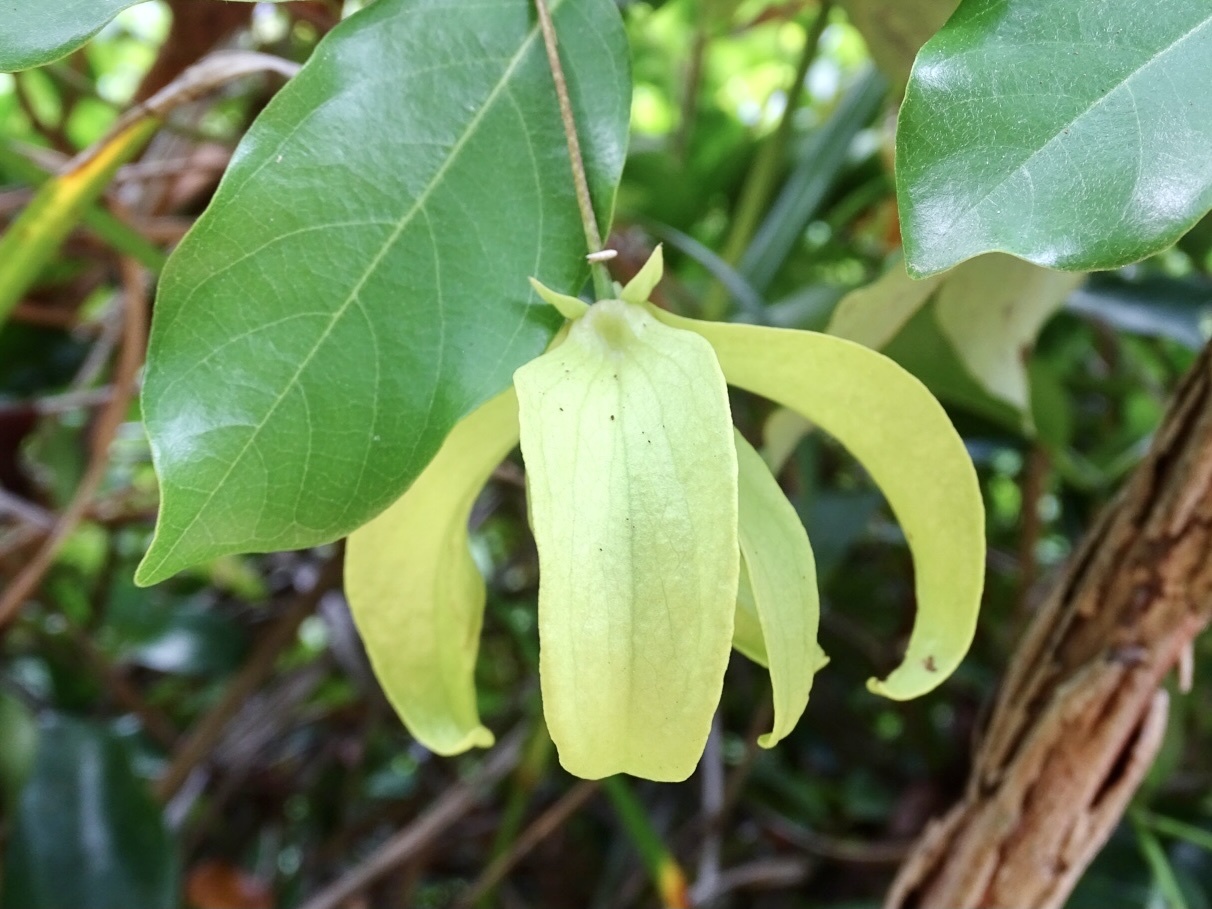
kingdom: Plantae
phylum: Tracheophyta
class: Magnoliopsida
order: Magnoliales
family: Annonaceae
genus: Desmos
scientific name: Desmos chinensis
